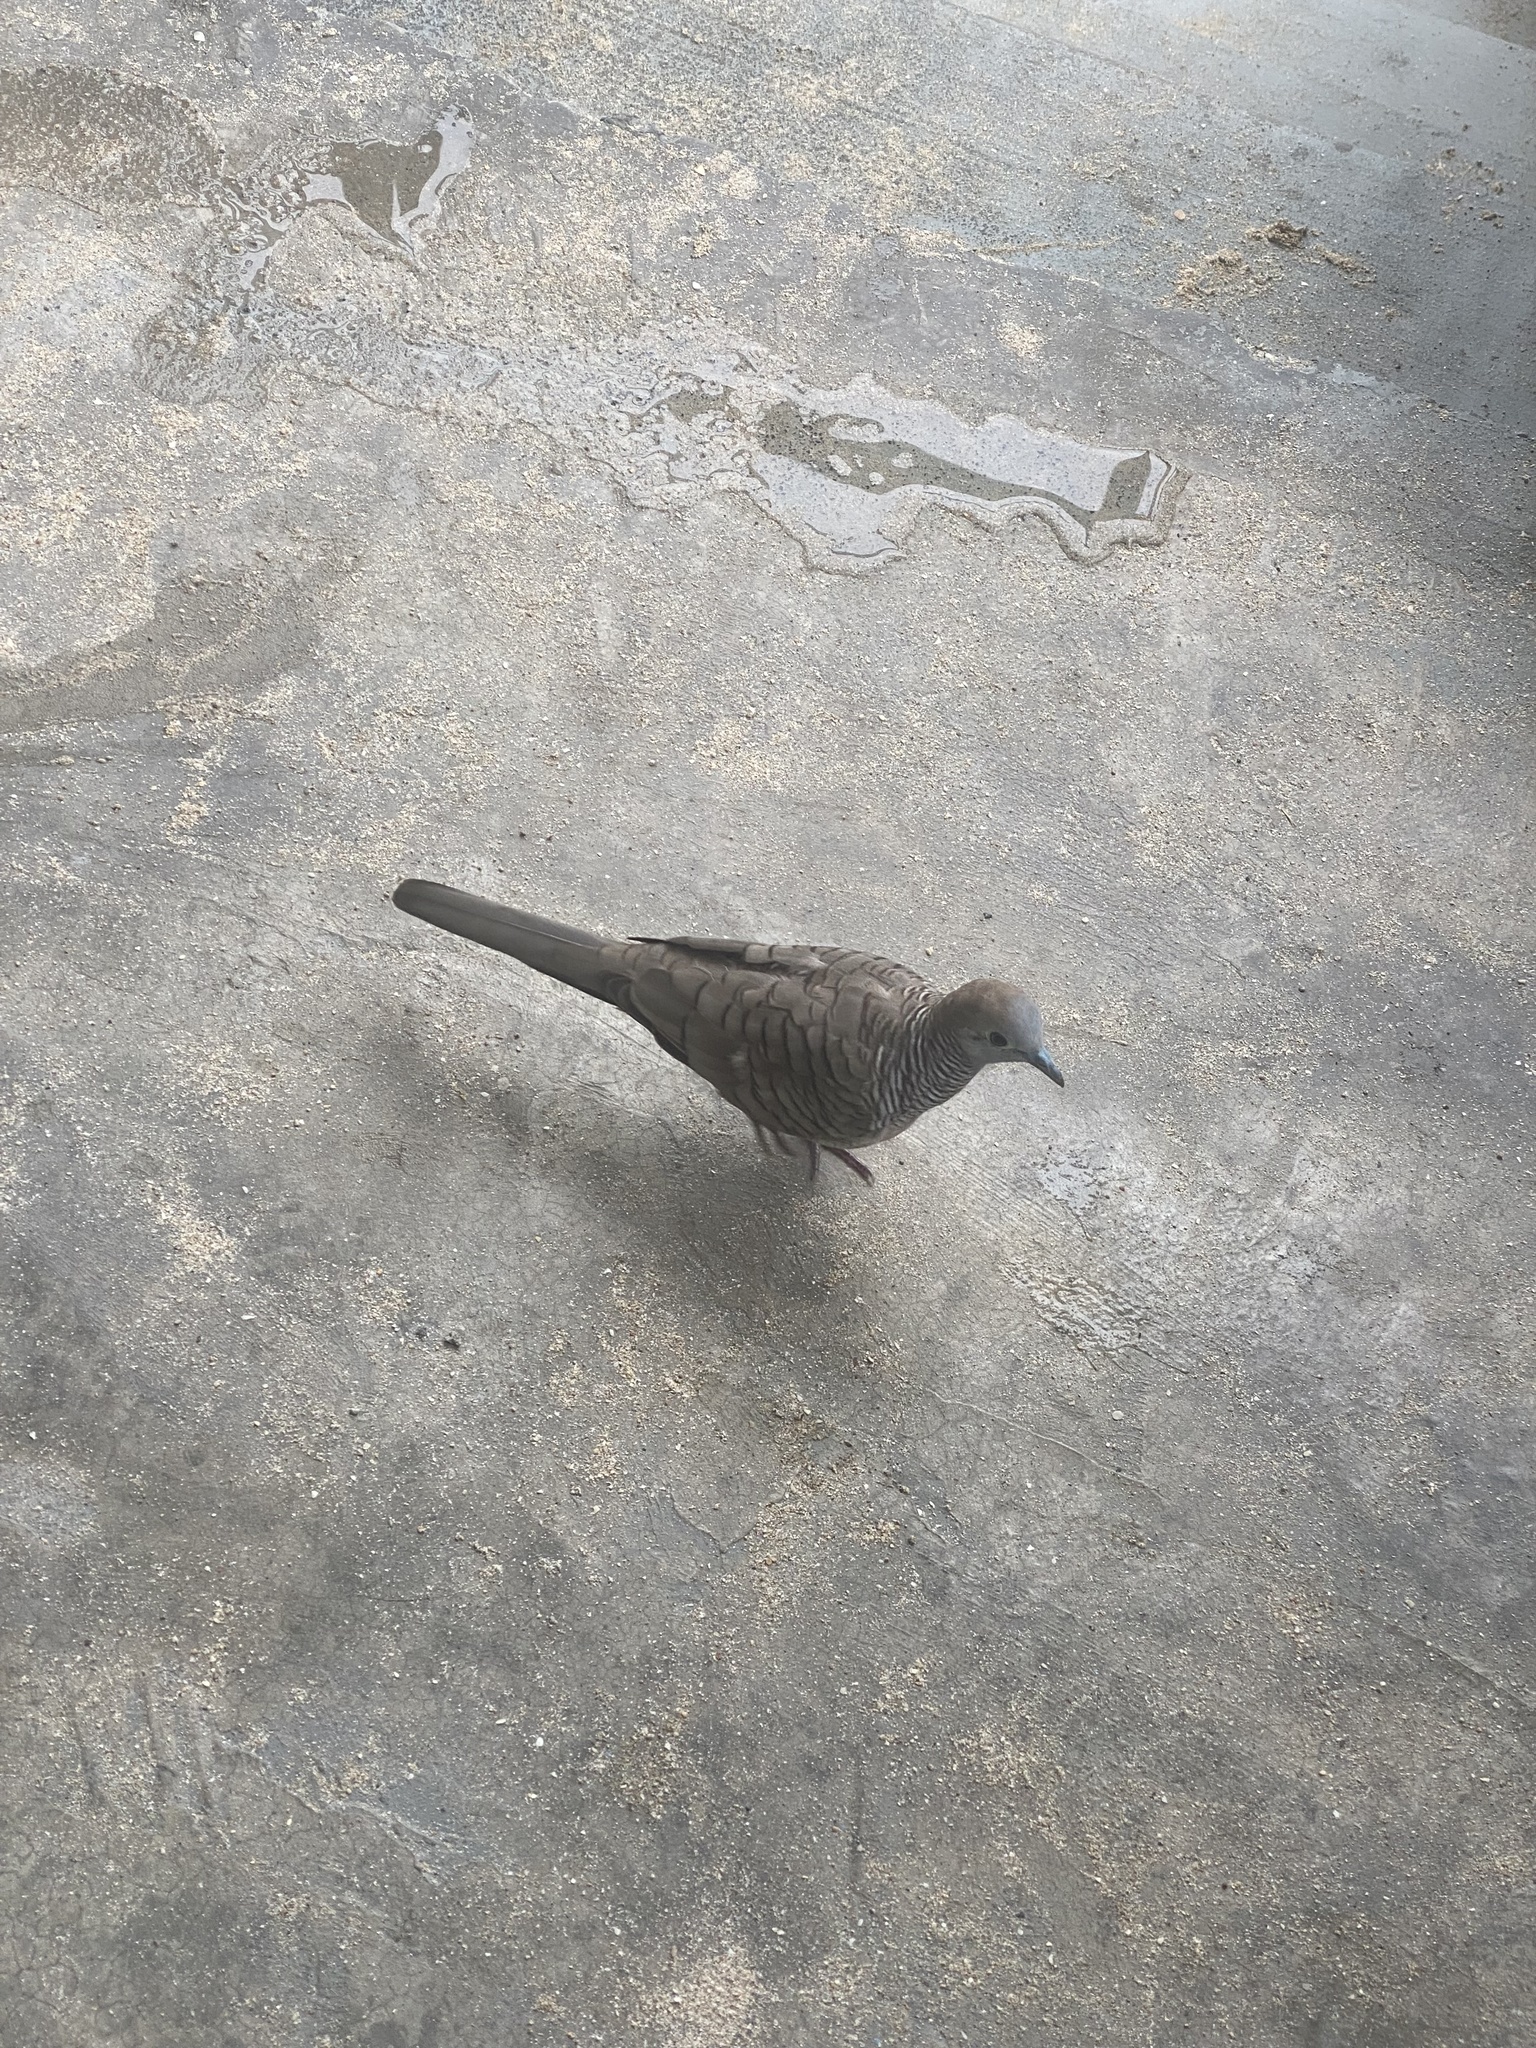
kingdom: Animalia
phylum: Chordata
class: Aves
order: Columbiformes
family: Columbidae
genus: Geopelia
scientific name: Geopelia striata
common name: Zebra dove
